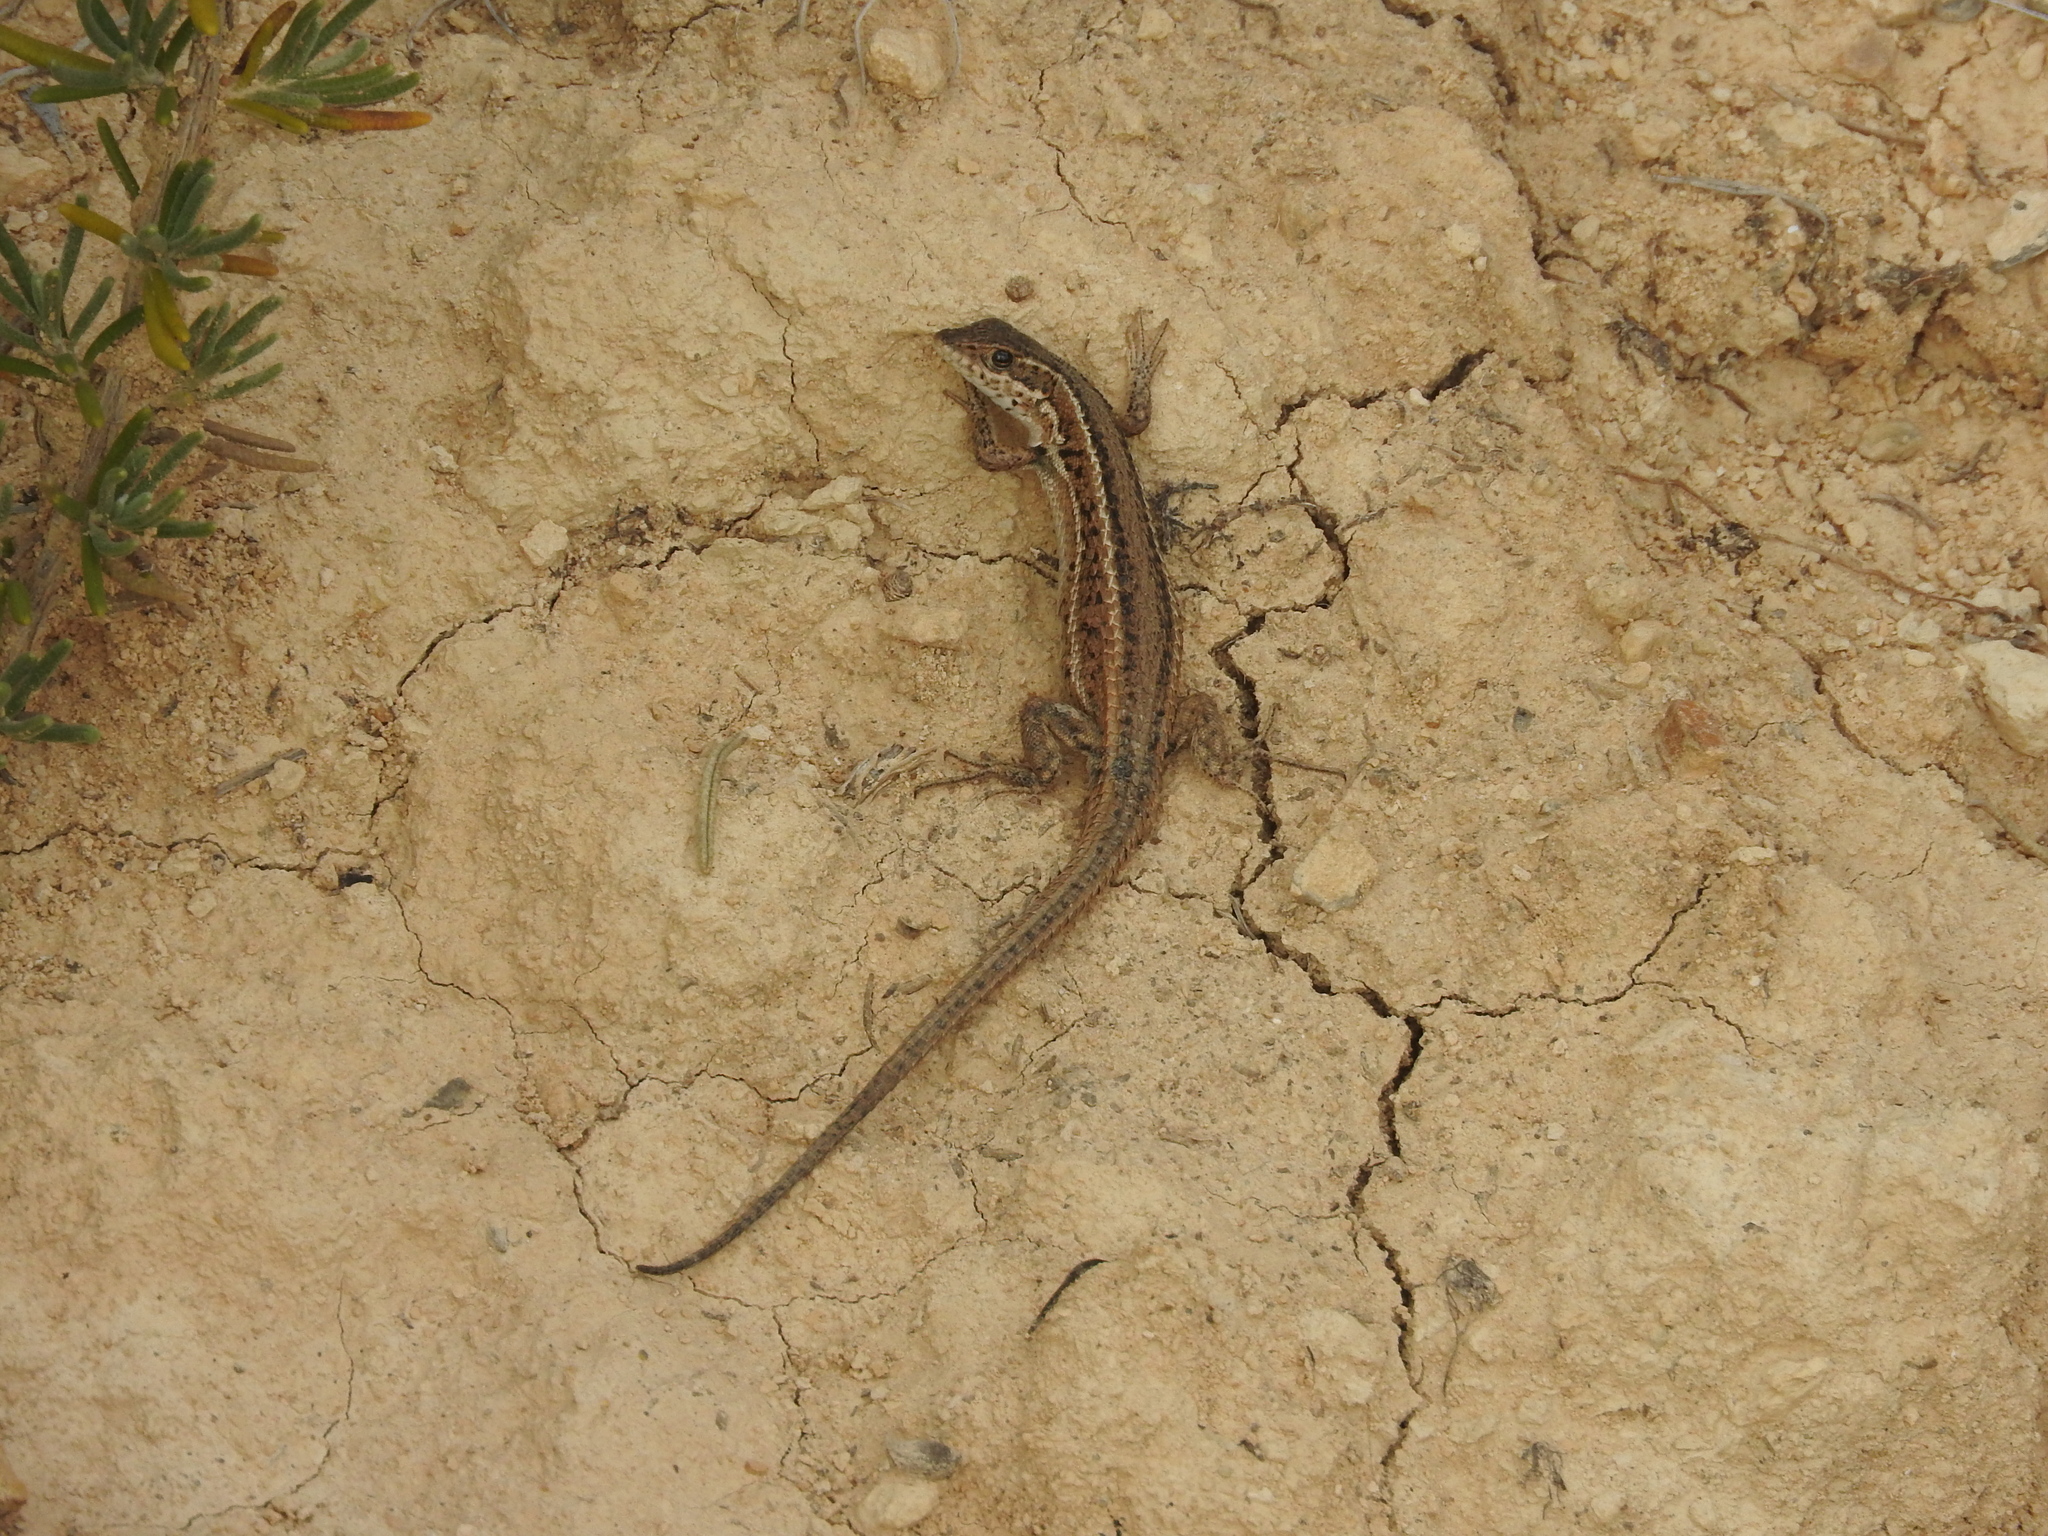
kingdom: Animalia
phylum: Chordata
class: Squamata
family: Lacertidae
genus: Ophisops
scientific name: Ophisops occidentalis
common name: Western snake-eyed lizard
